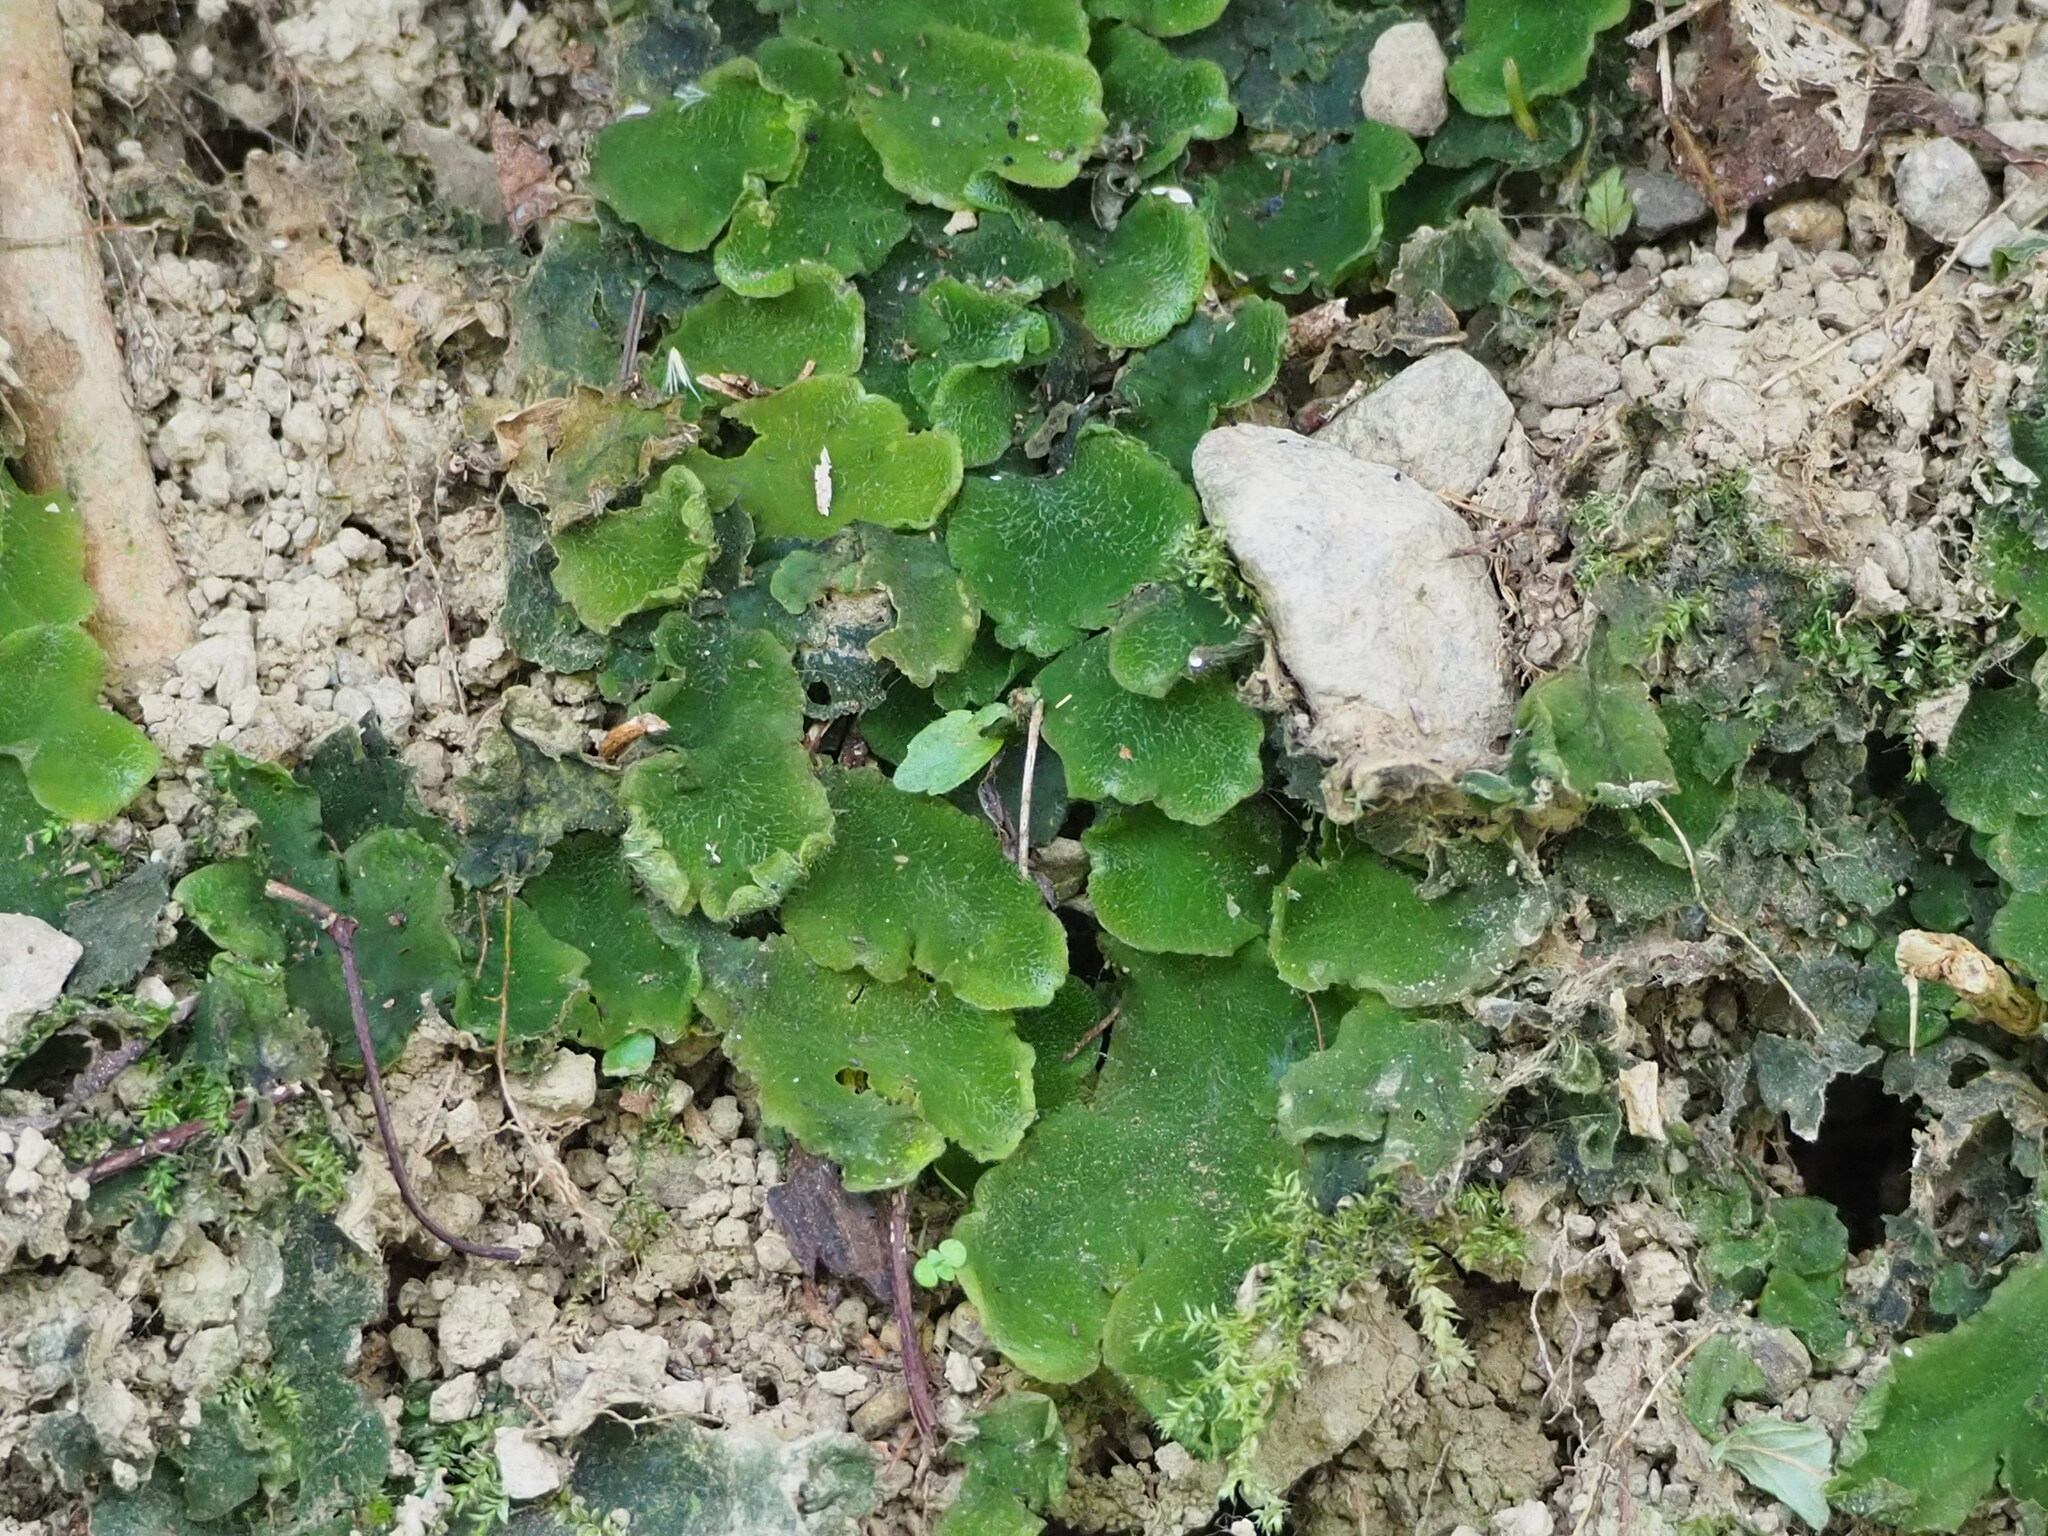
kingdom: Plantae
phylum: Marchantiophyta
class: Marchantiopsida
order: Marchantiales
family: Dumortieraceae
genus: Dumortiera
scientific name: Dumortiera hirsuta
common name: Dumortier's liverwort
